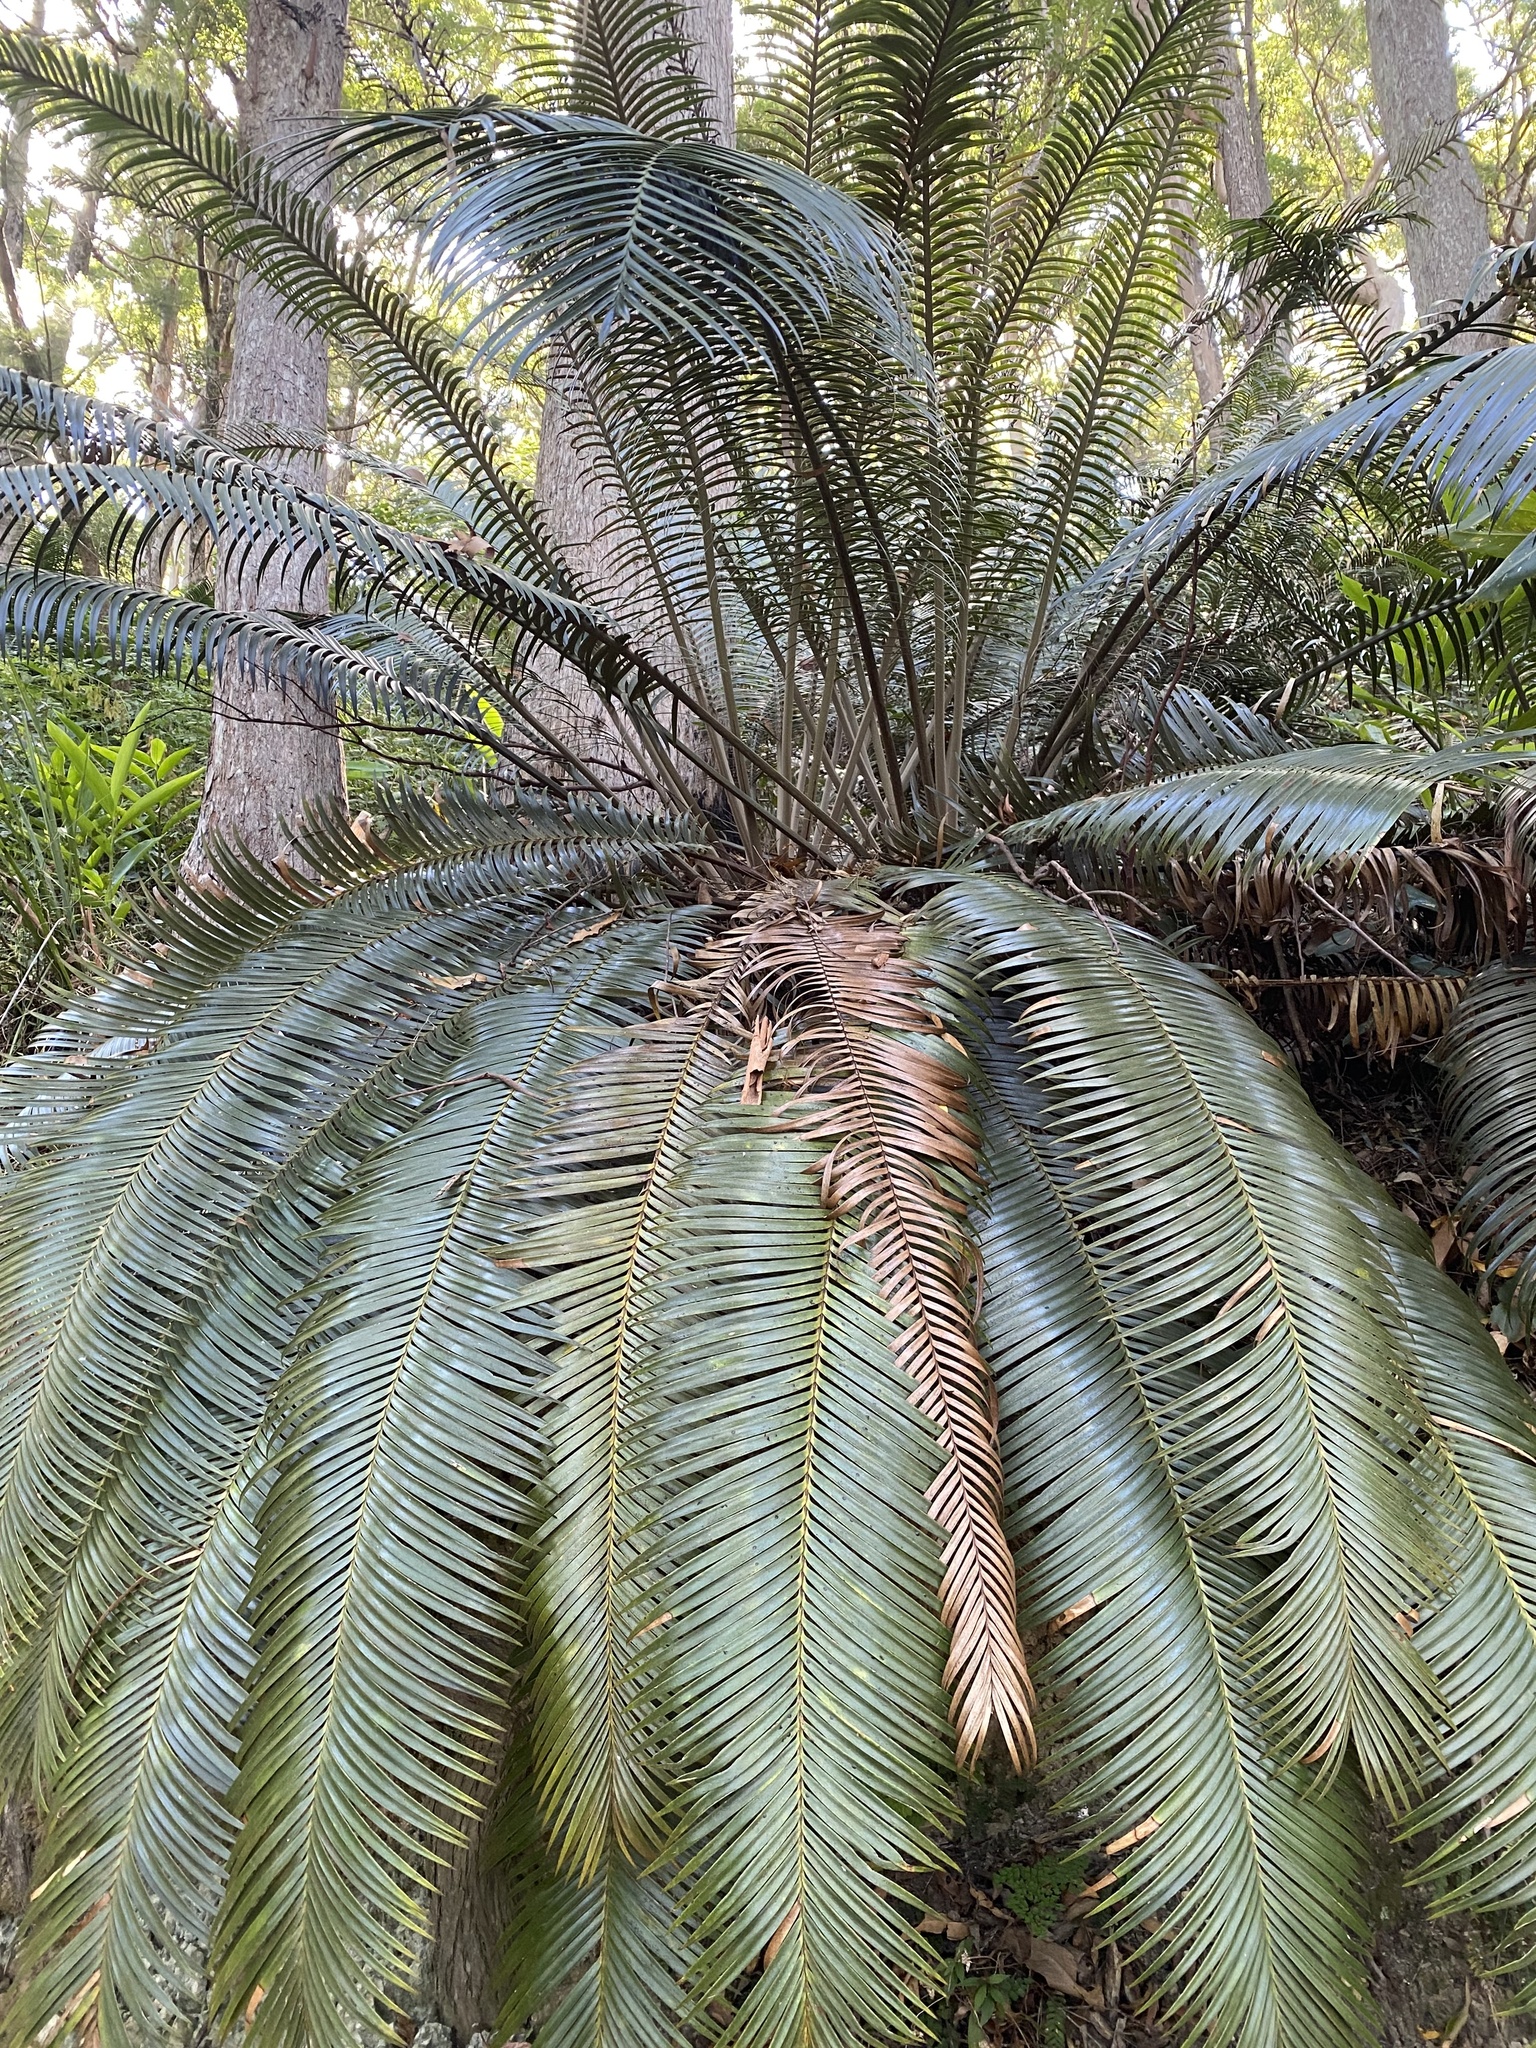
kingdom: Plantae
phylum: Tracheophyta
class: Cycadopsida
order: Cycadales
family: Zamiaceae
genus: Lepidozamia
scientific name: Lepidozamia peroffskyana
